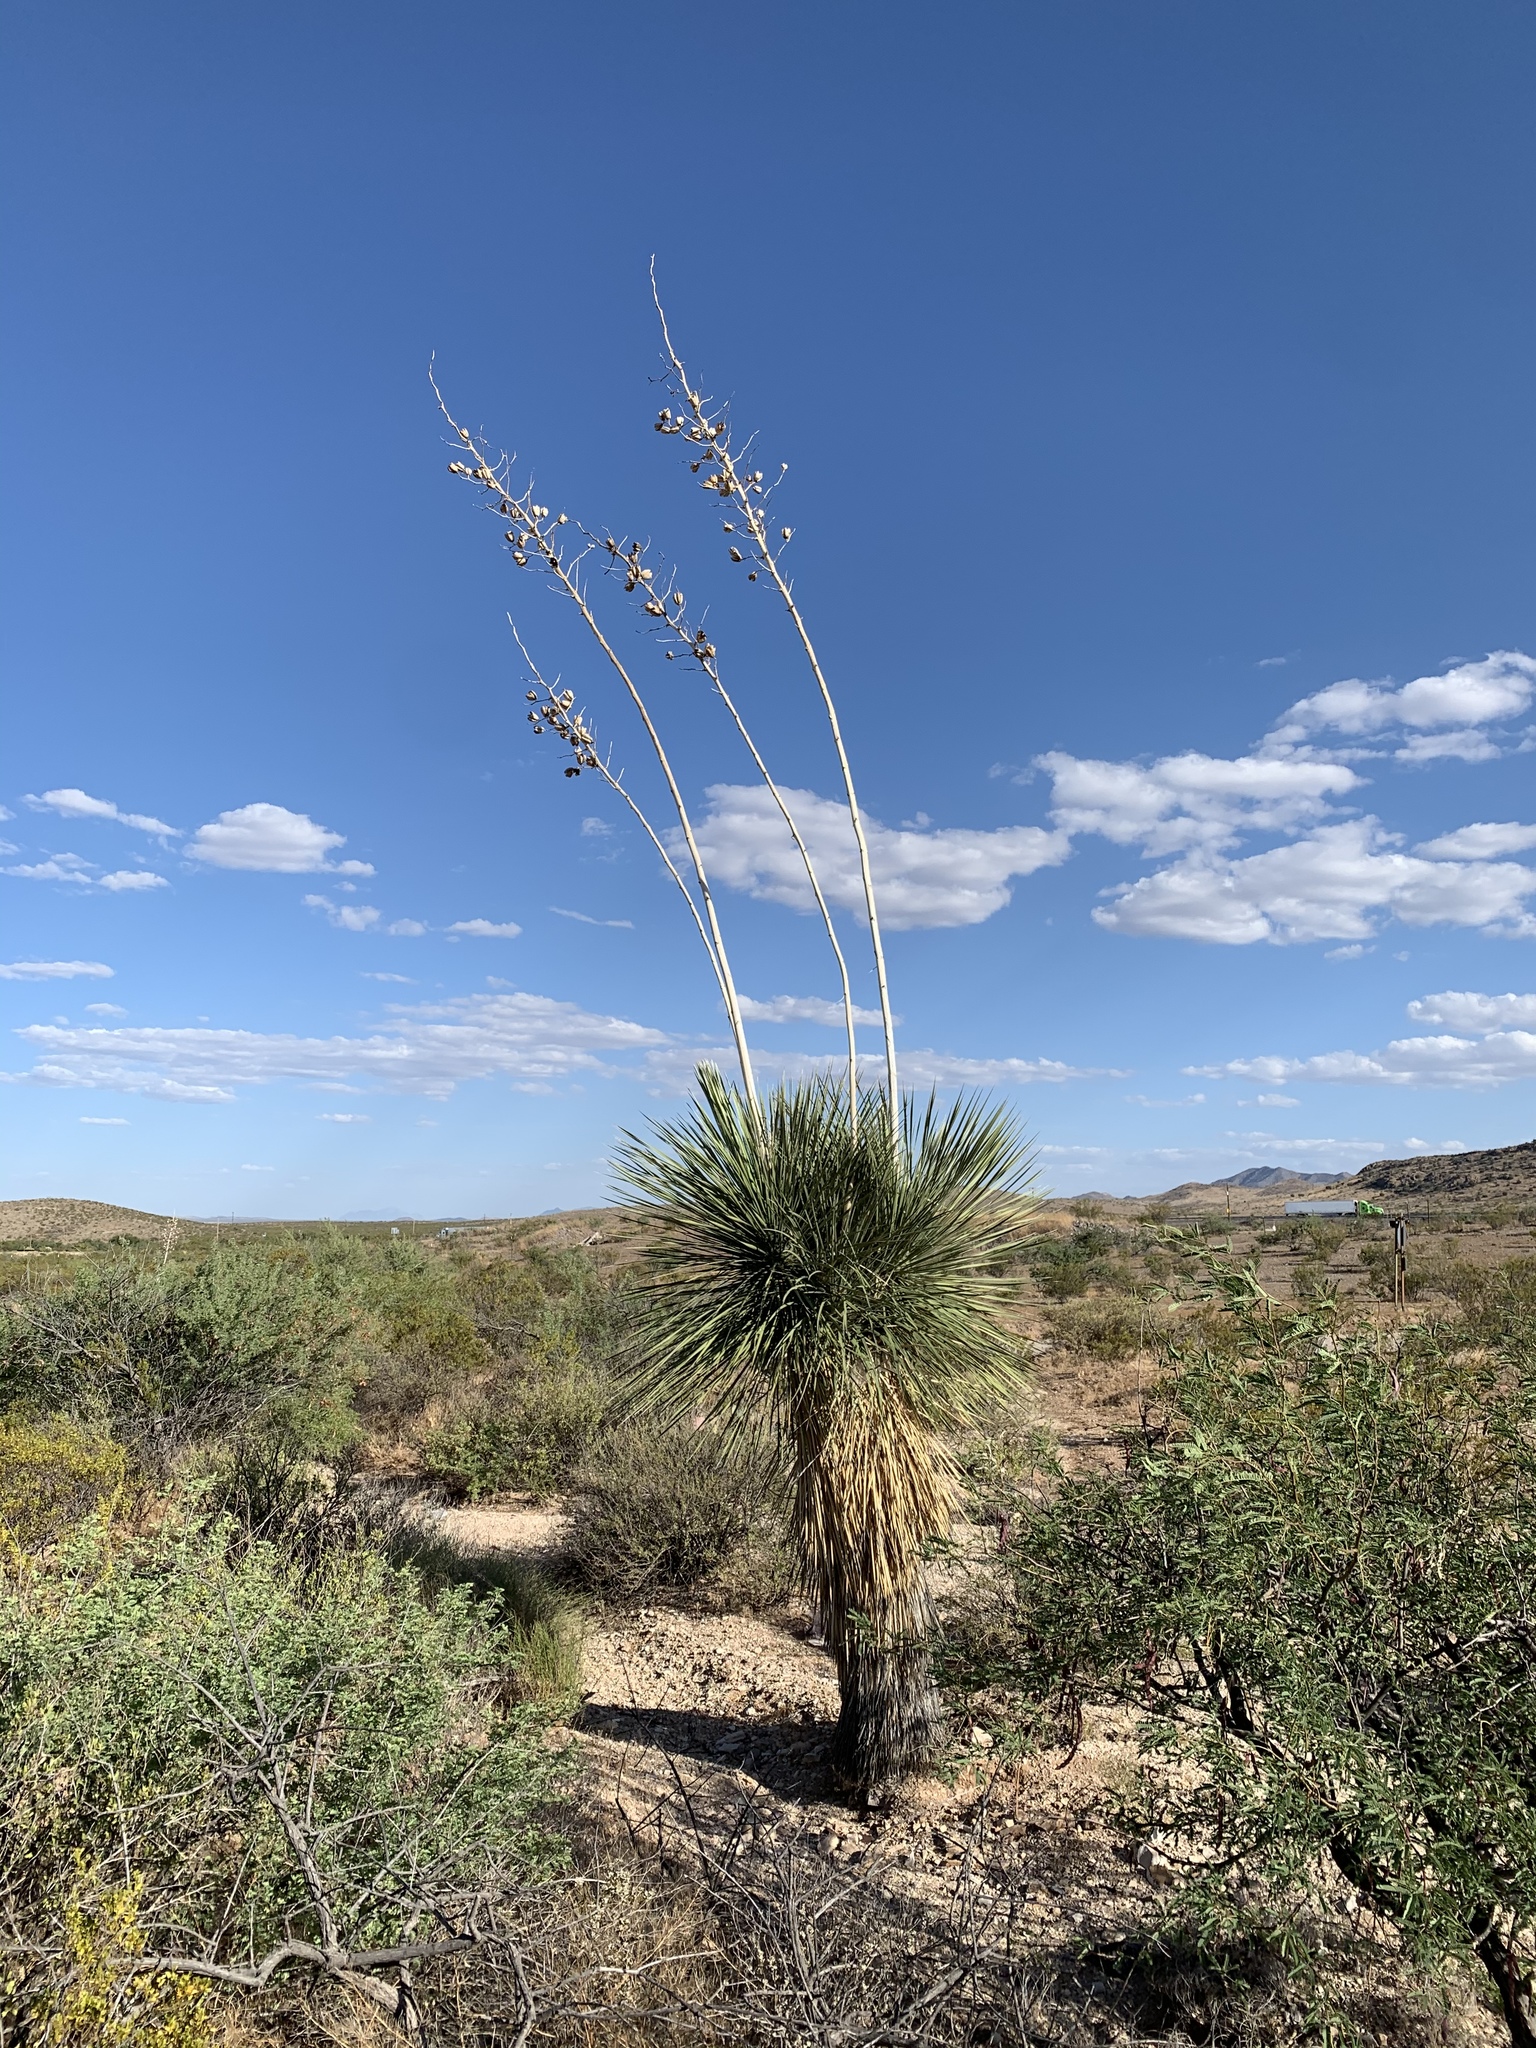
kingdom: Plantae
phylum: Tracheophyta
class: Liliopsida
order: Asparagales
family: Asparagaceae
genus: Yucca
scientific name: Yucca elata
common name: Palmella
